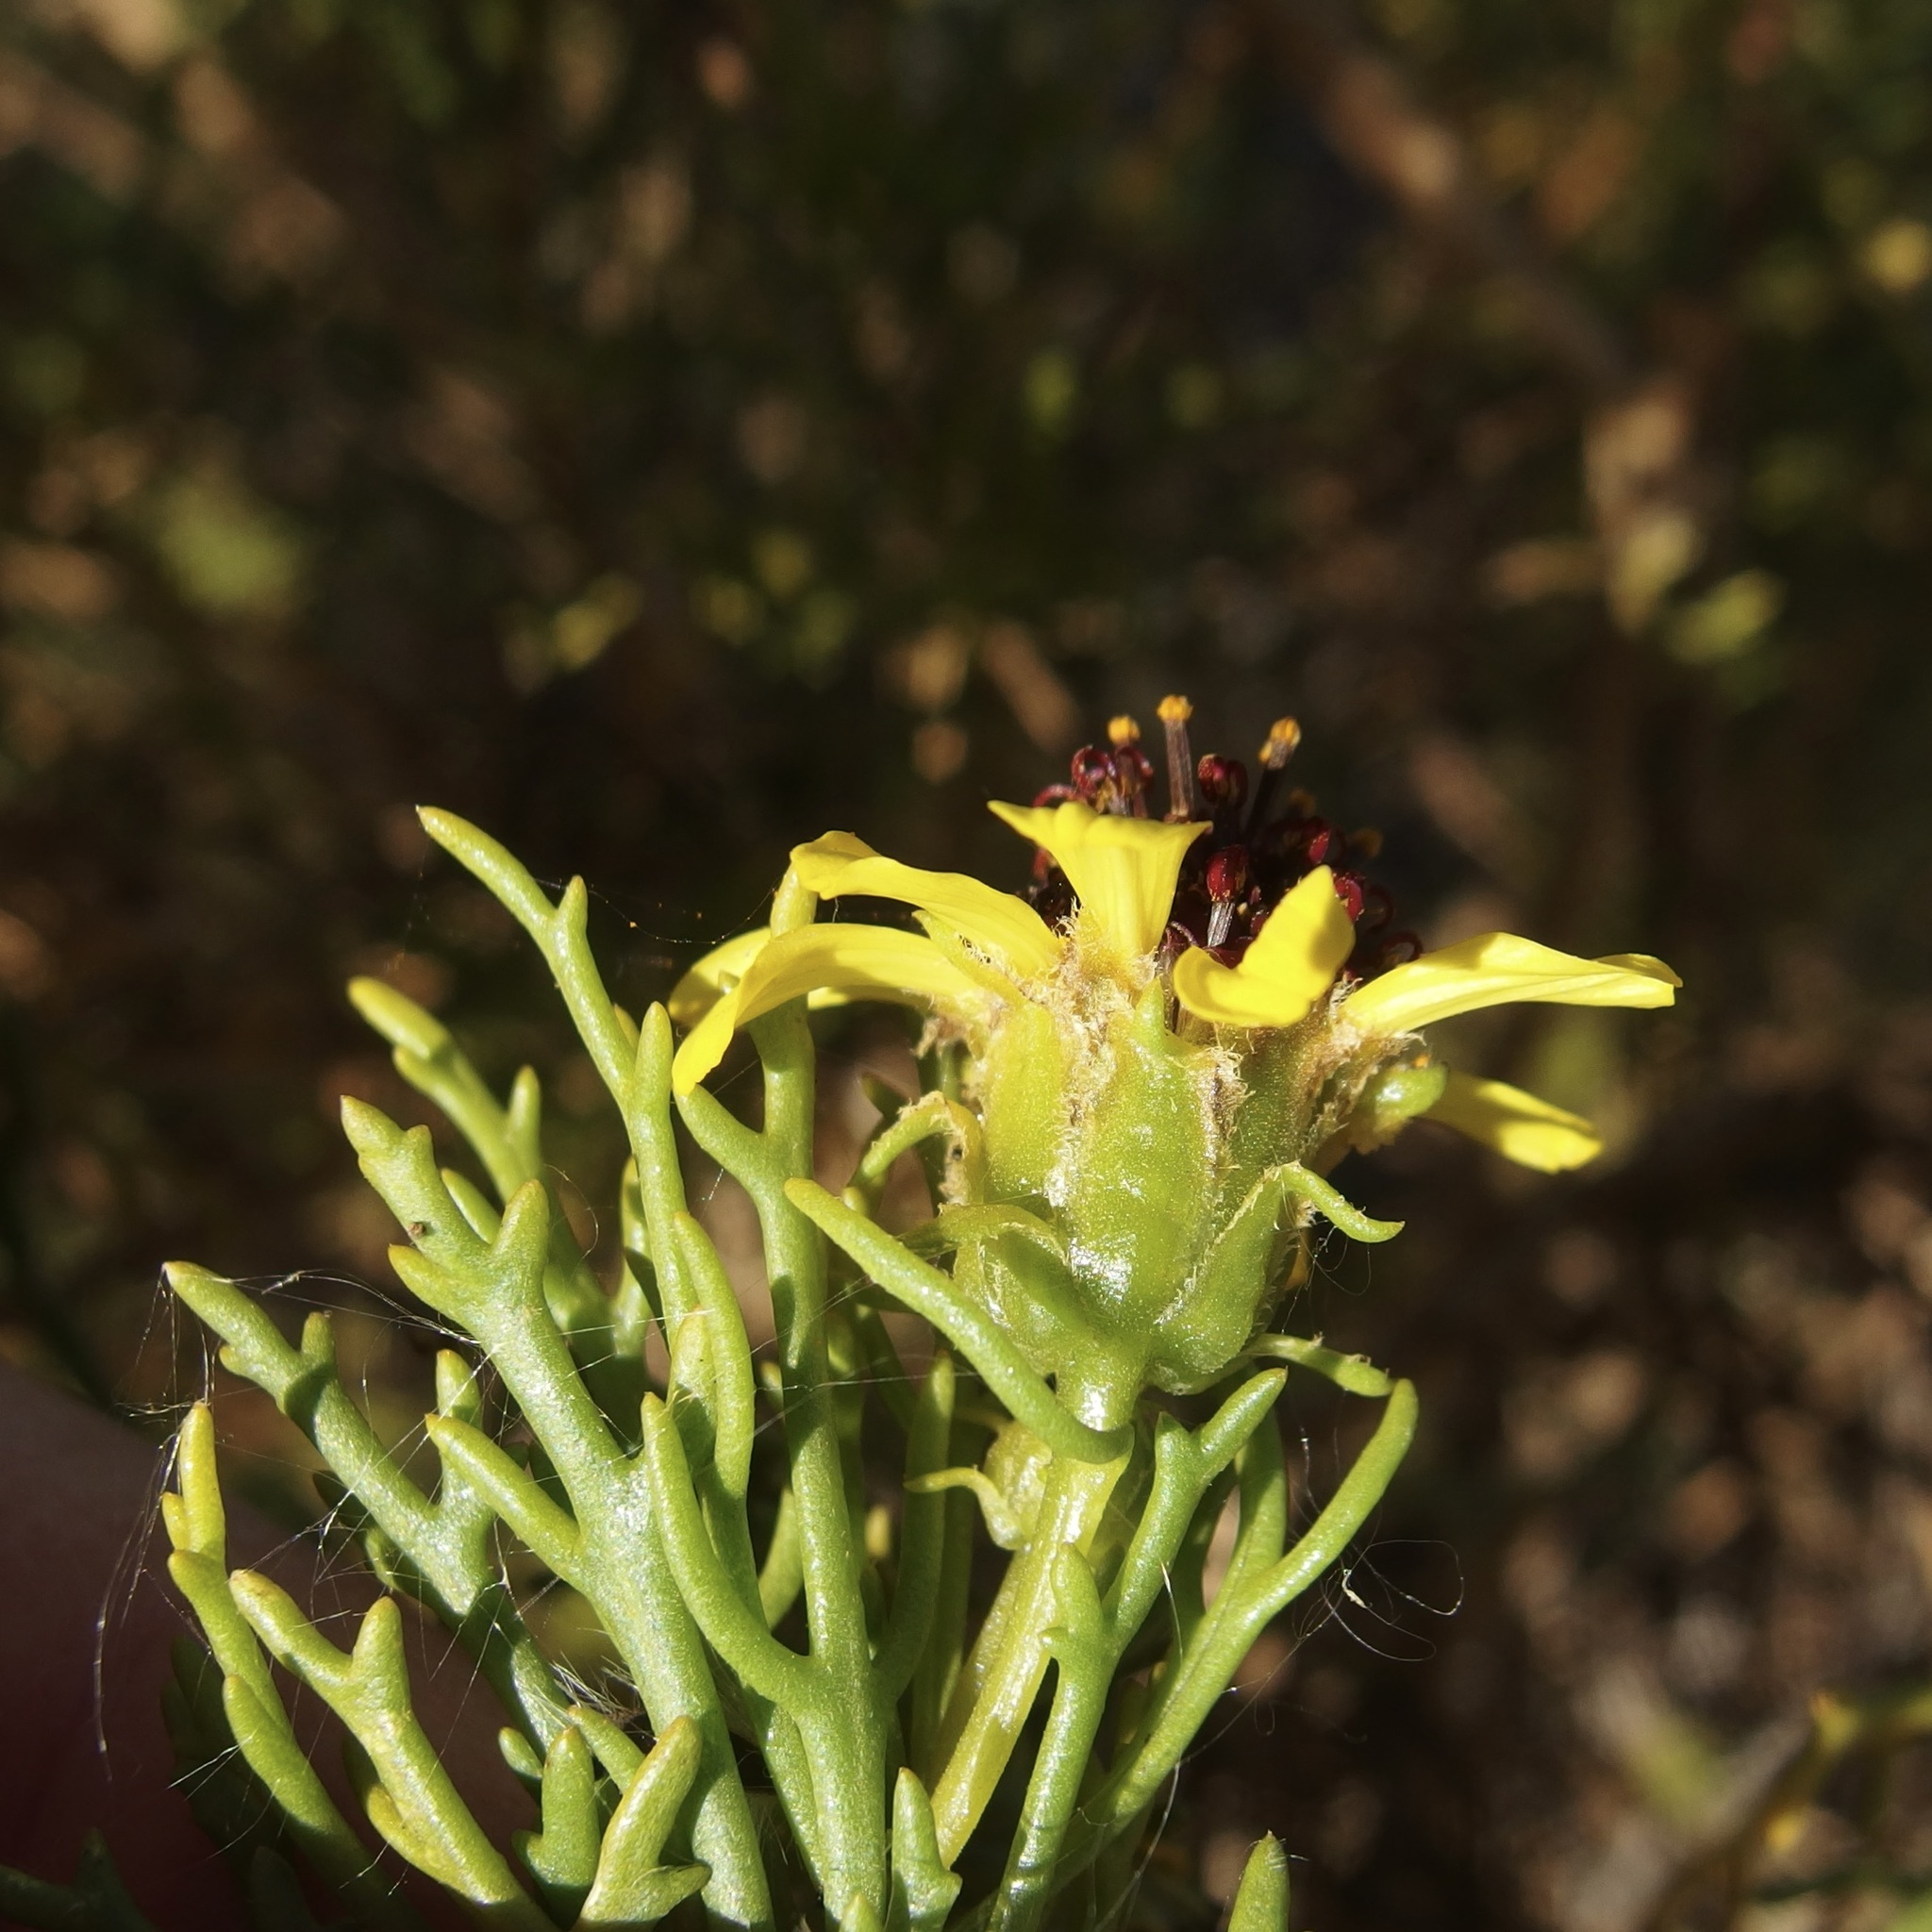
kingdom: Plantae
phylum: Tracheophyta
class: Magnoliopsida
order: Asterales
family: Asteraceae
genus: Encelia
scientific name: Encelia ventorum
